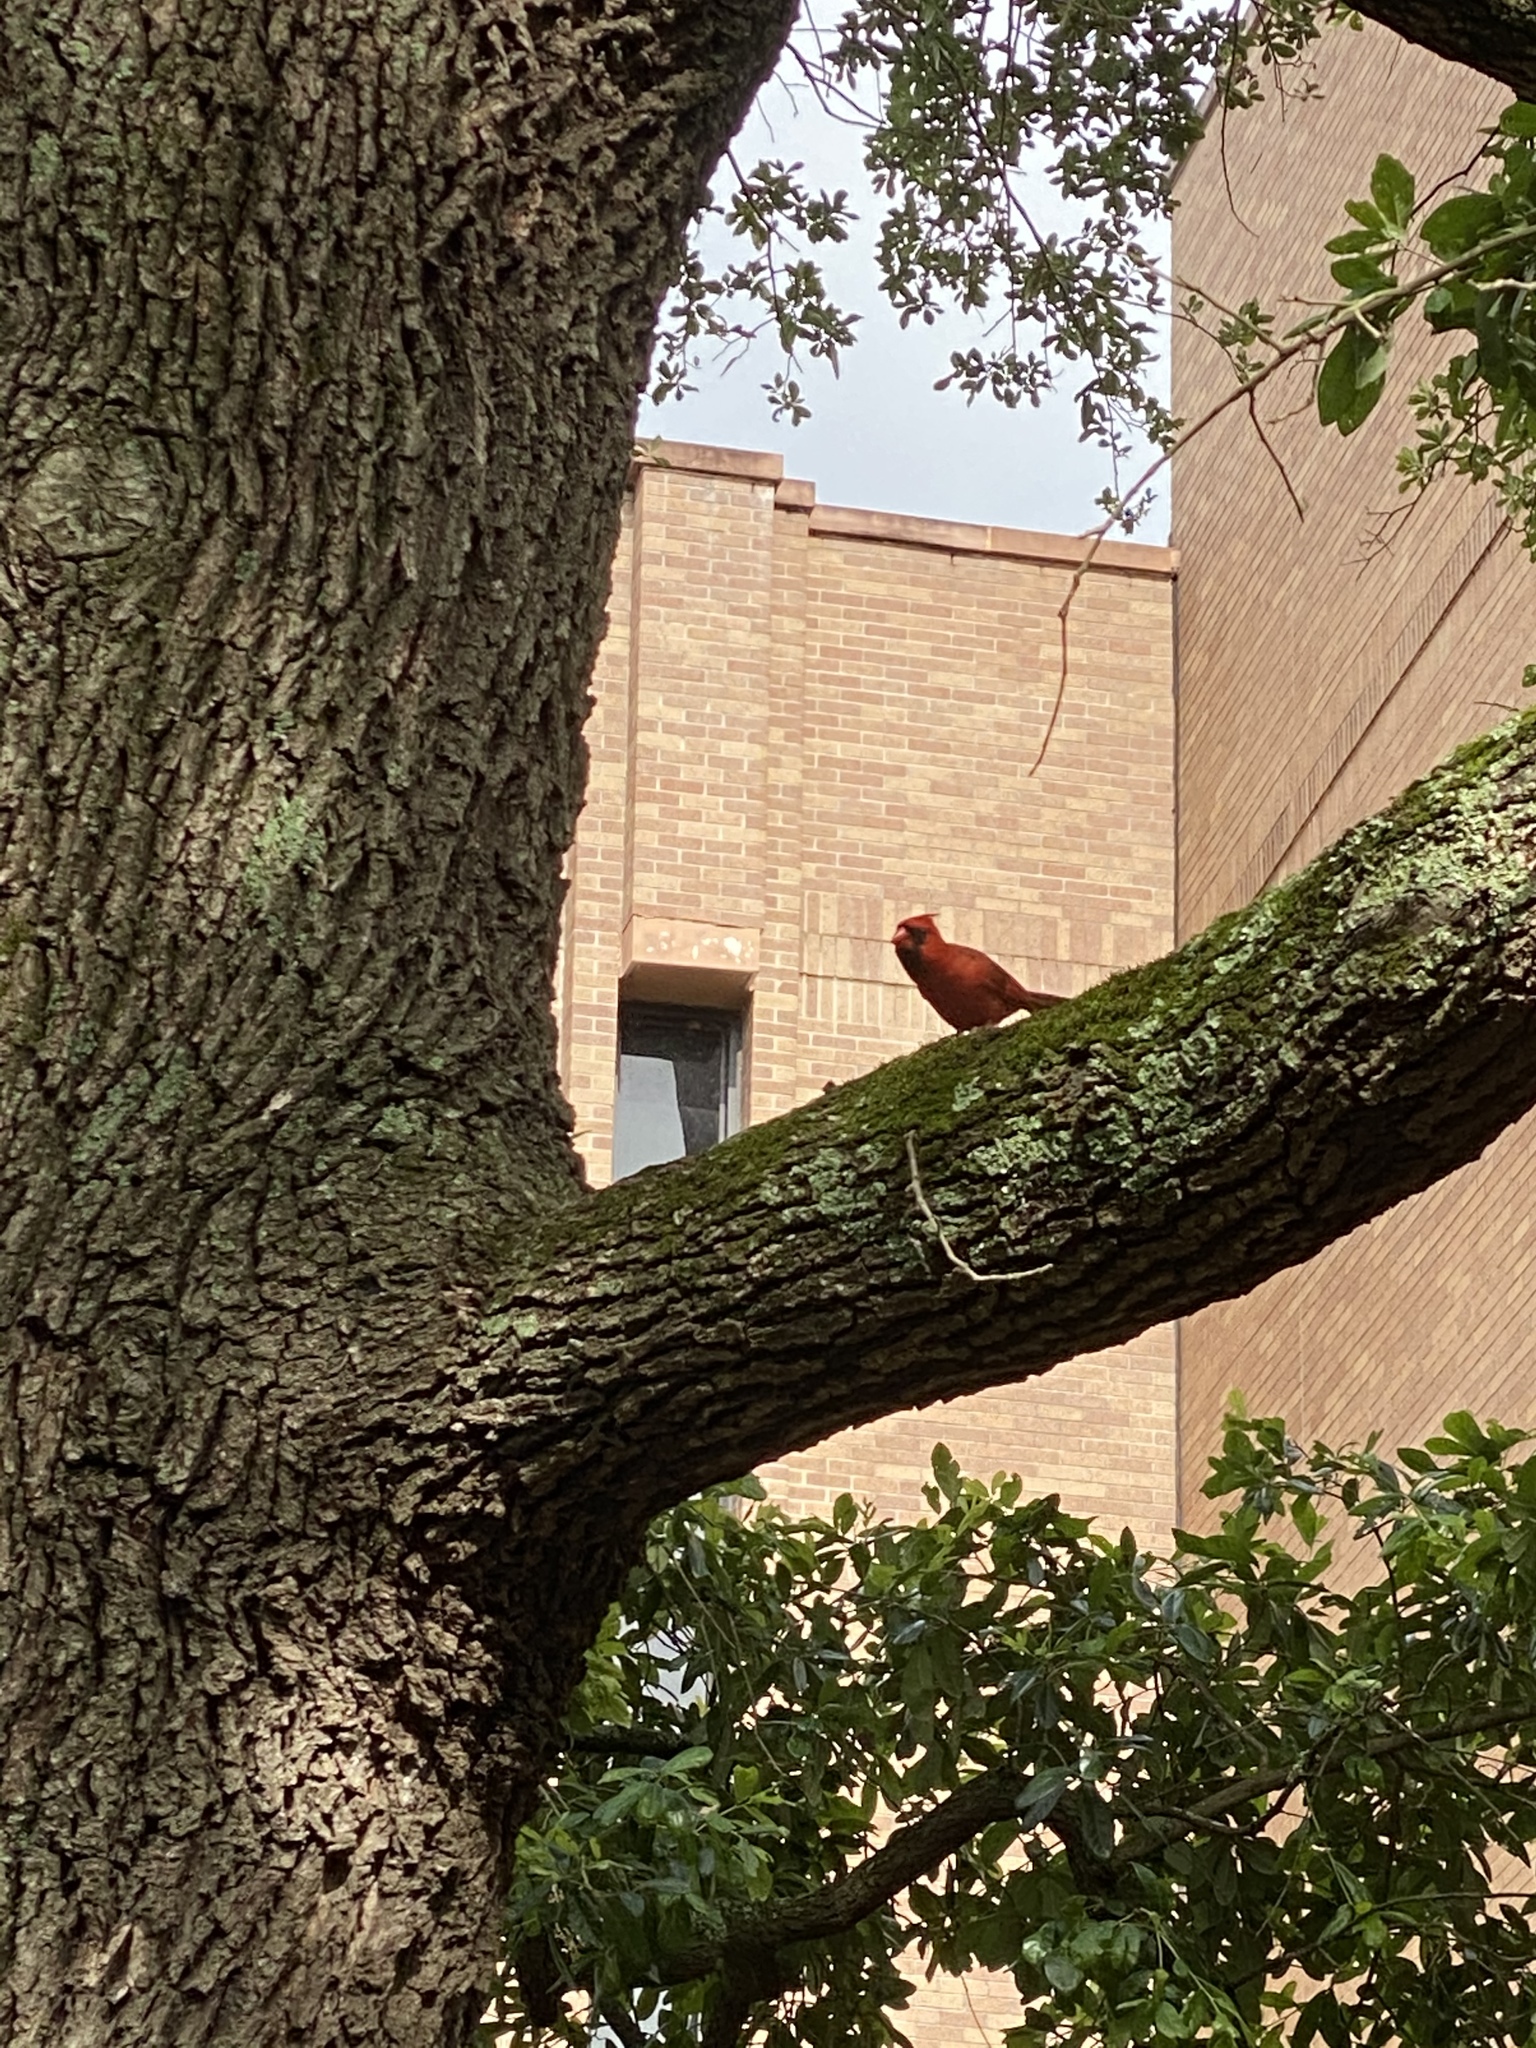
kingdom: Animalia
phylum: Chordata
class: Aves
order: Passeriformes
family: Cardinalidae
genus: Cardinalis
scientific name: Cardinalis cardinalis
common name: Northern cardinal
